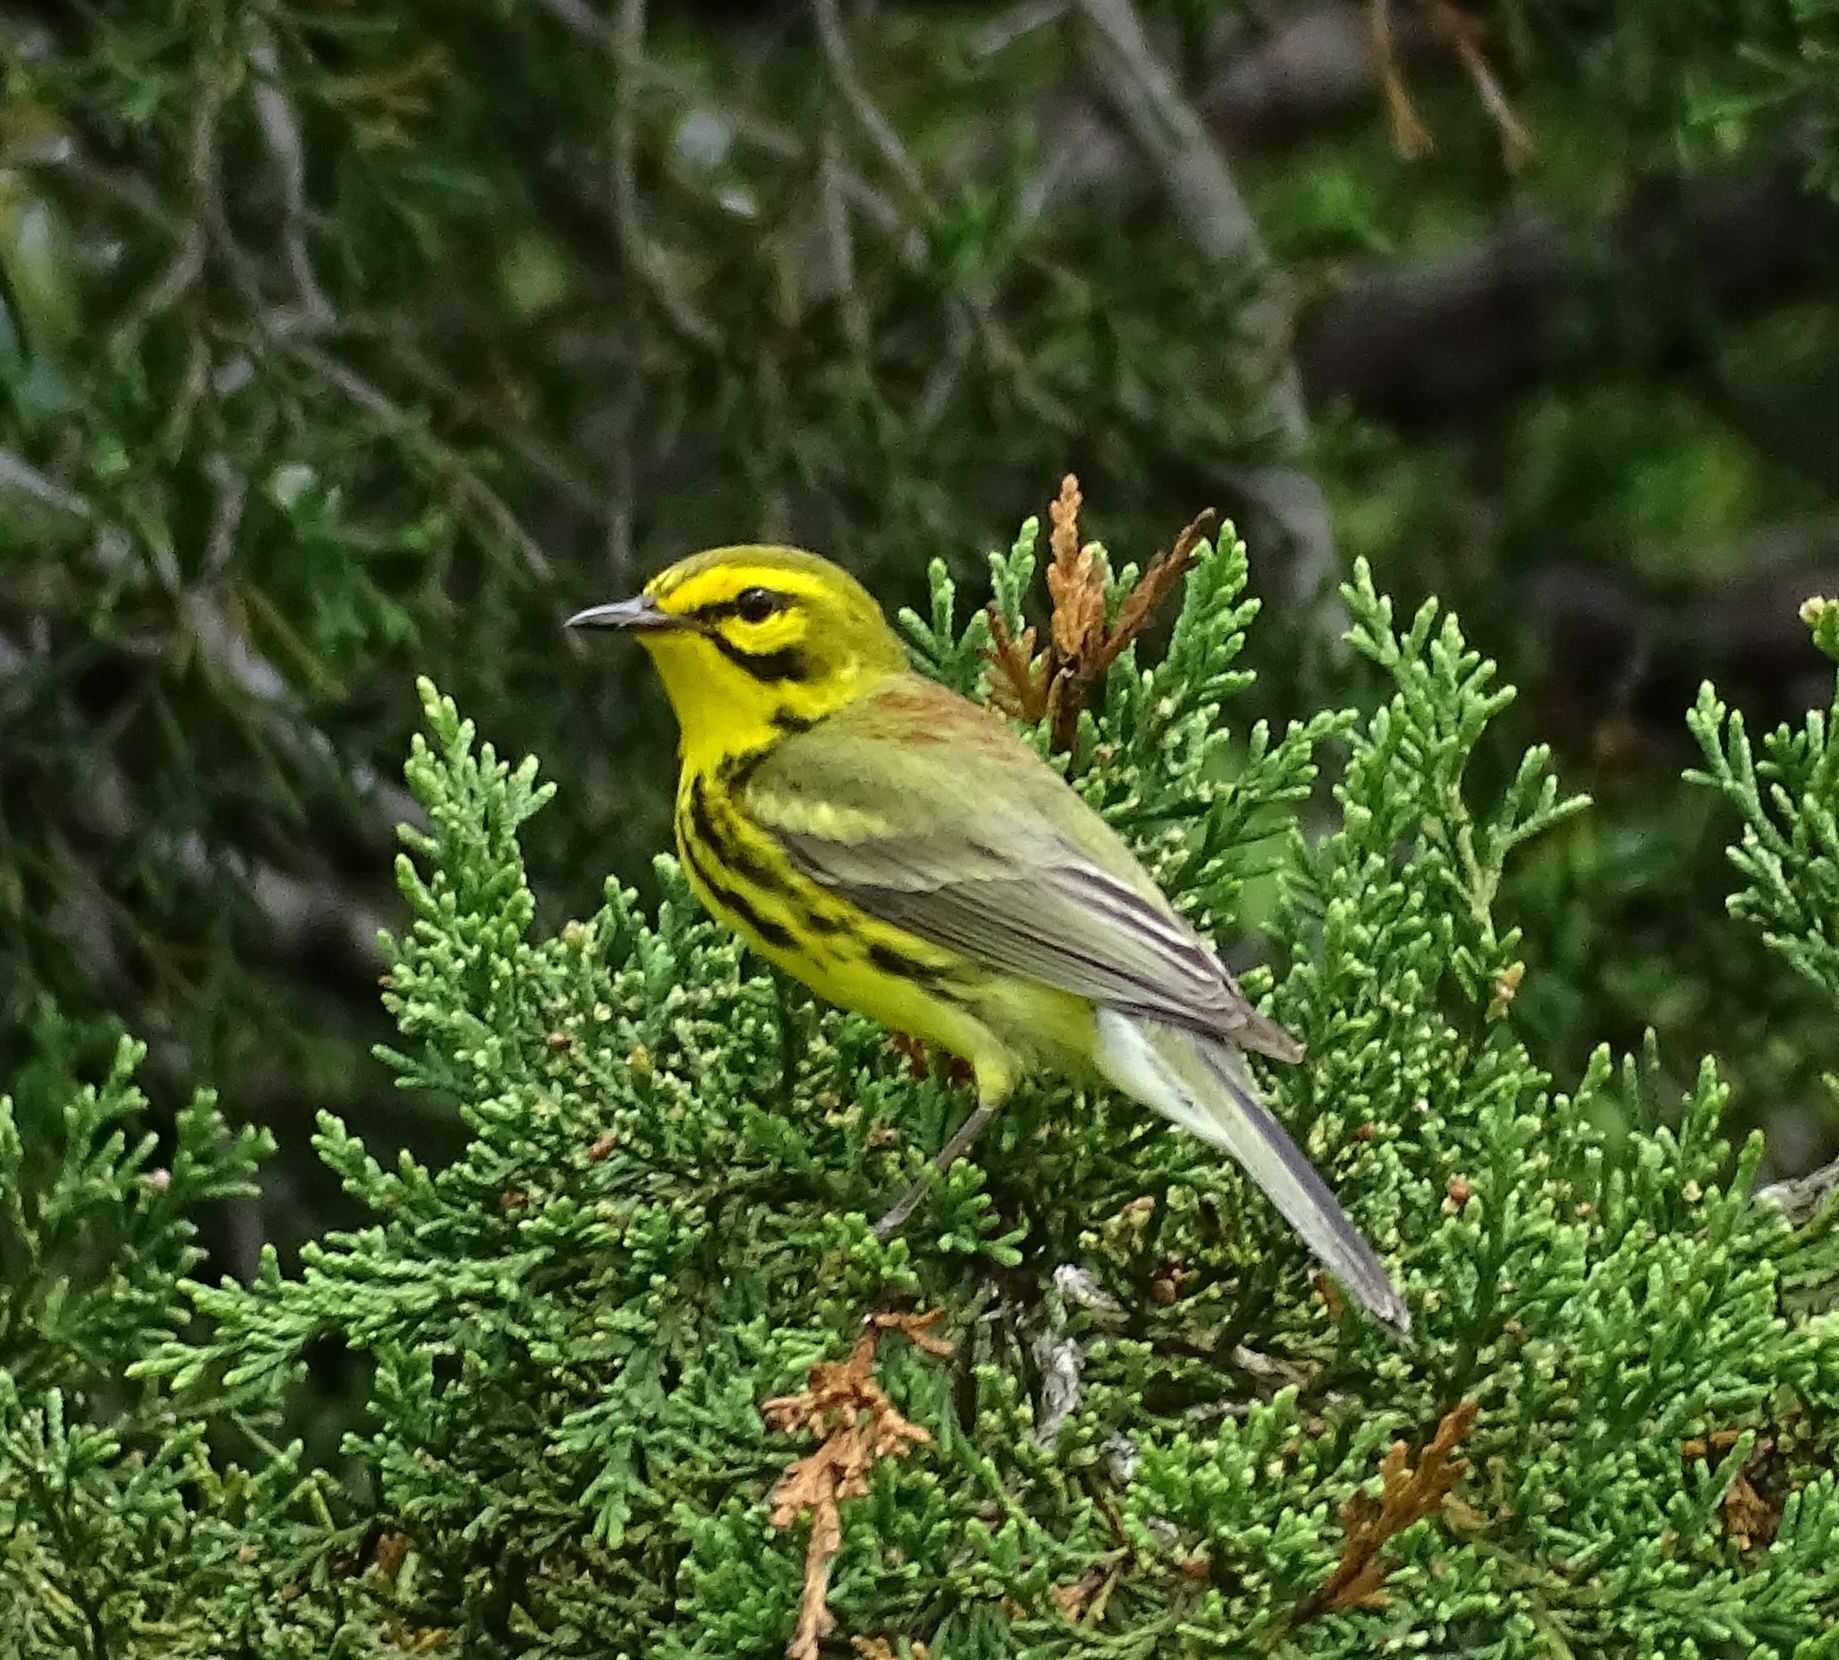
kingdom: Animalia
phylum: Chordata
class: Aves
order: Passeriformes
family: Parulidae
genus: Setophaga
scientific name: Setophaga discolor
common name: Prairie warbler
